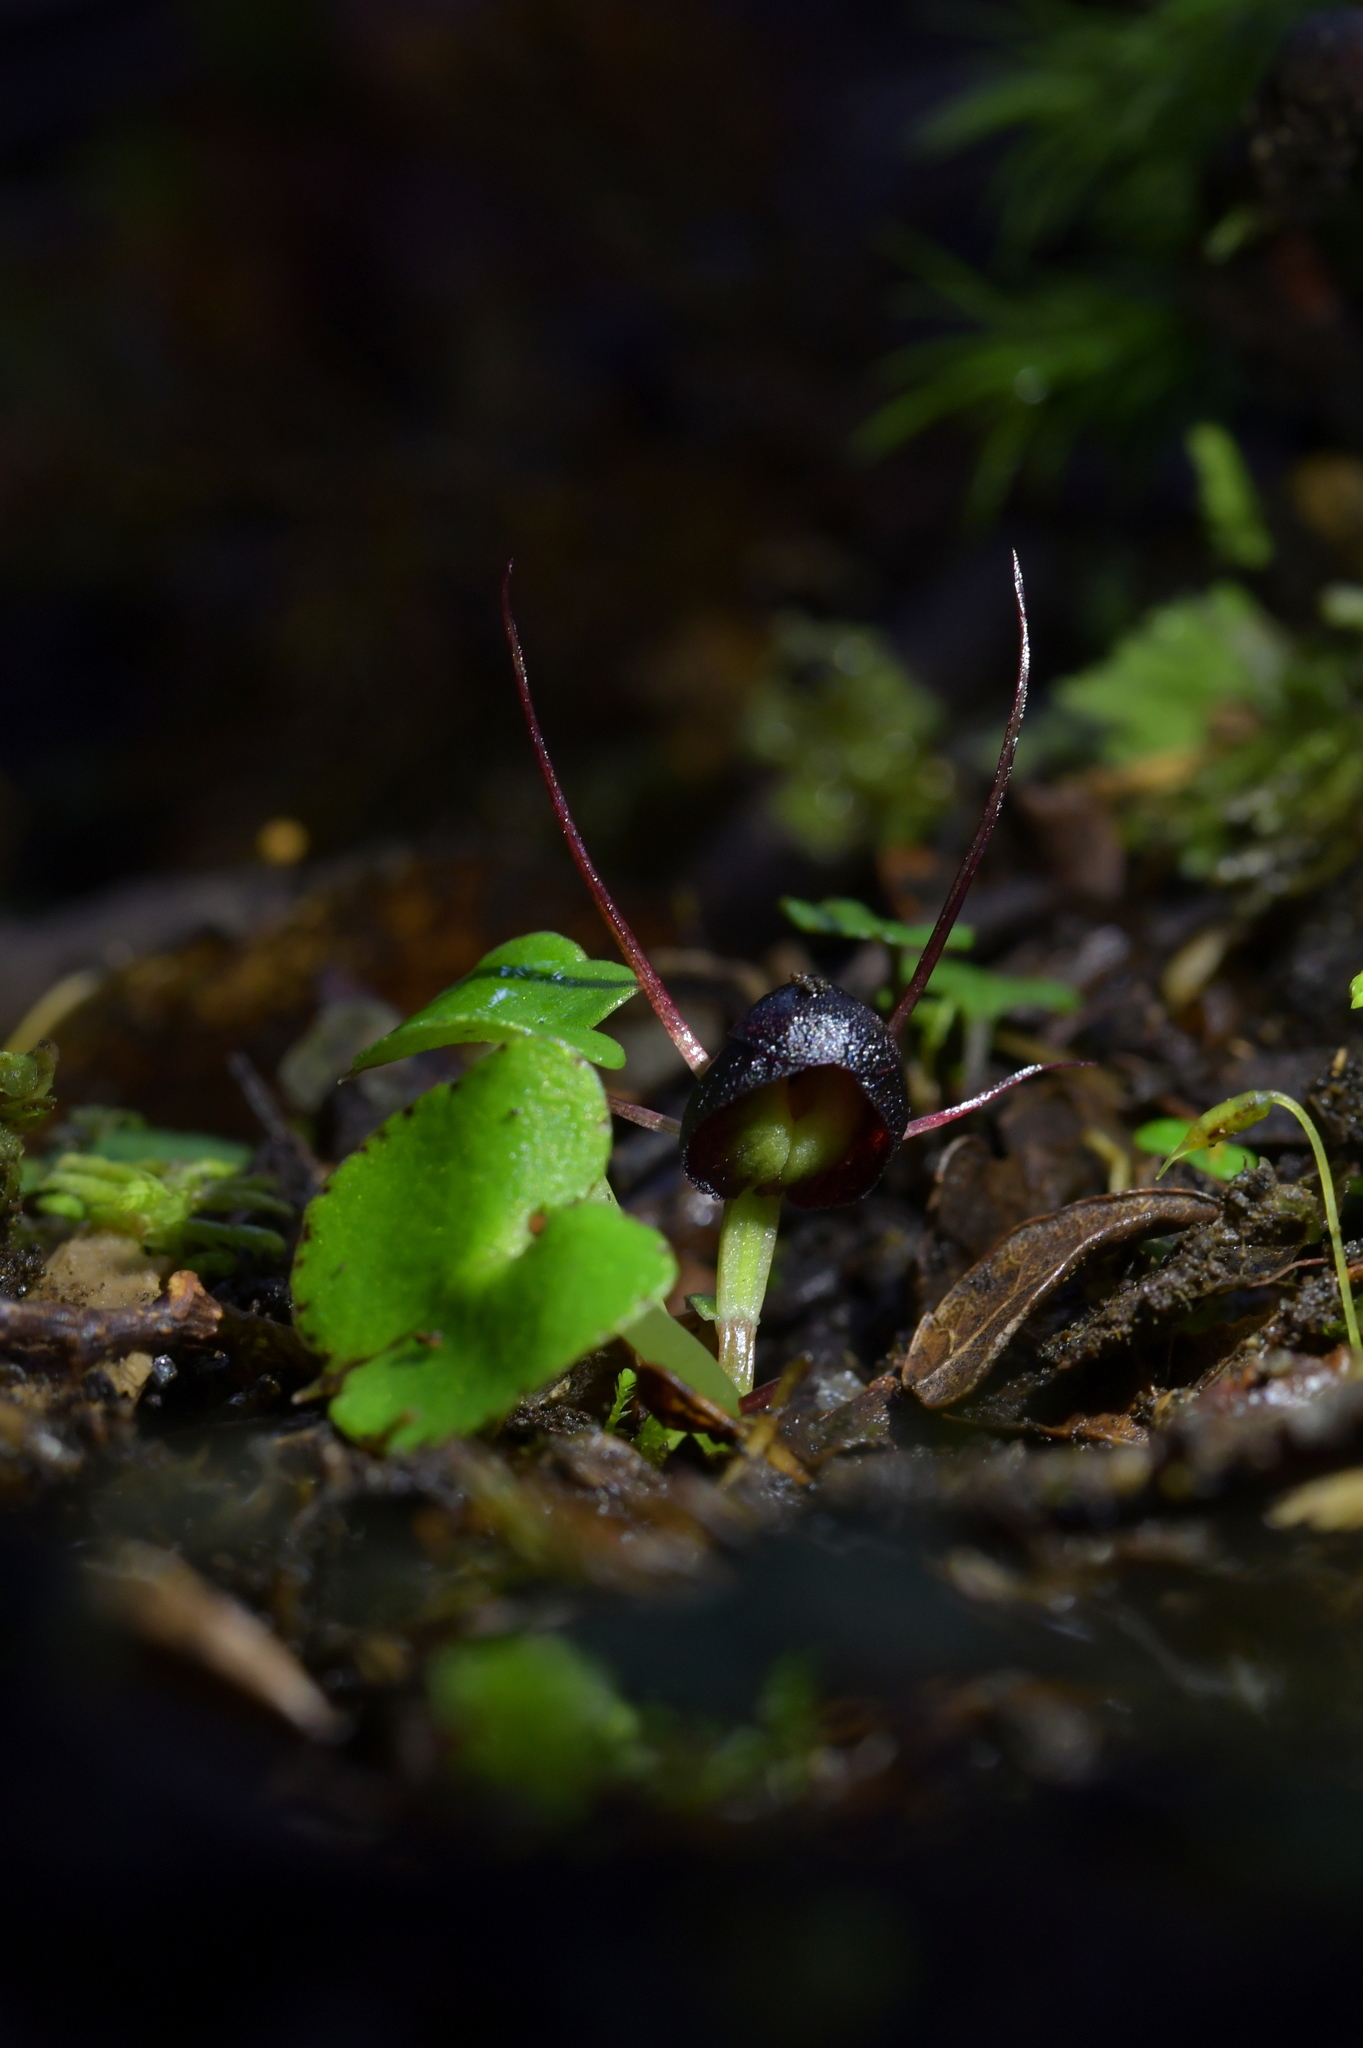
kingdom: Plantae
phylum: Tracheophyta
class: Liliopsida
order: Asparagales
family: Orchidaceae
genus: Corybas
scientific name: Corybas obscurus
